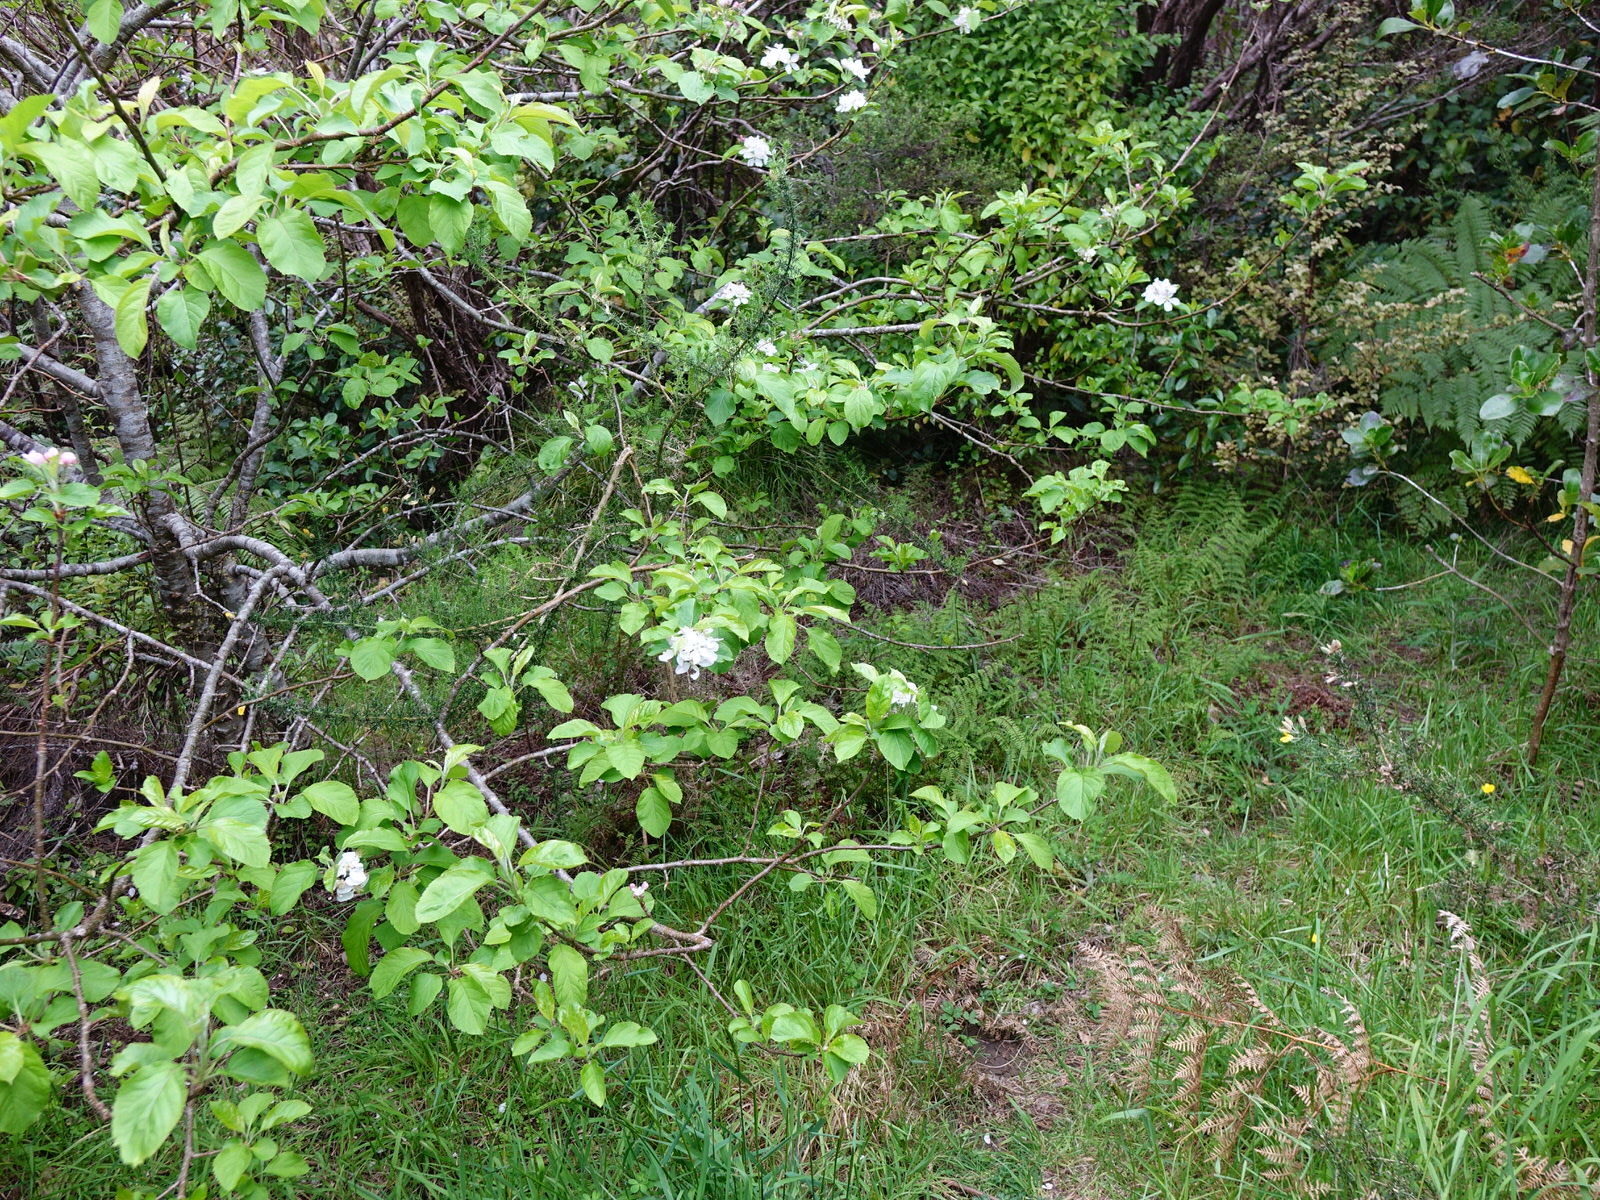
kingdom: Plantae
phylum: Tracheophyta
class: Magnoliopsida
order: Rosales
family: Rosaceae
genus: Malus
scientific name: Malus domestica
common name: Apple
